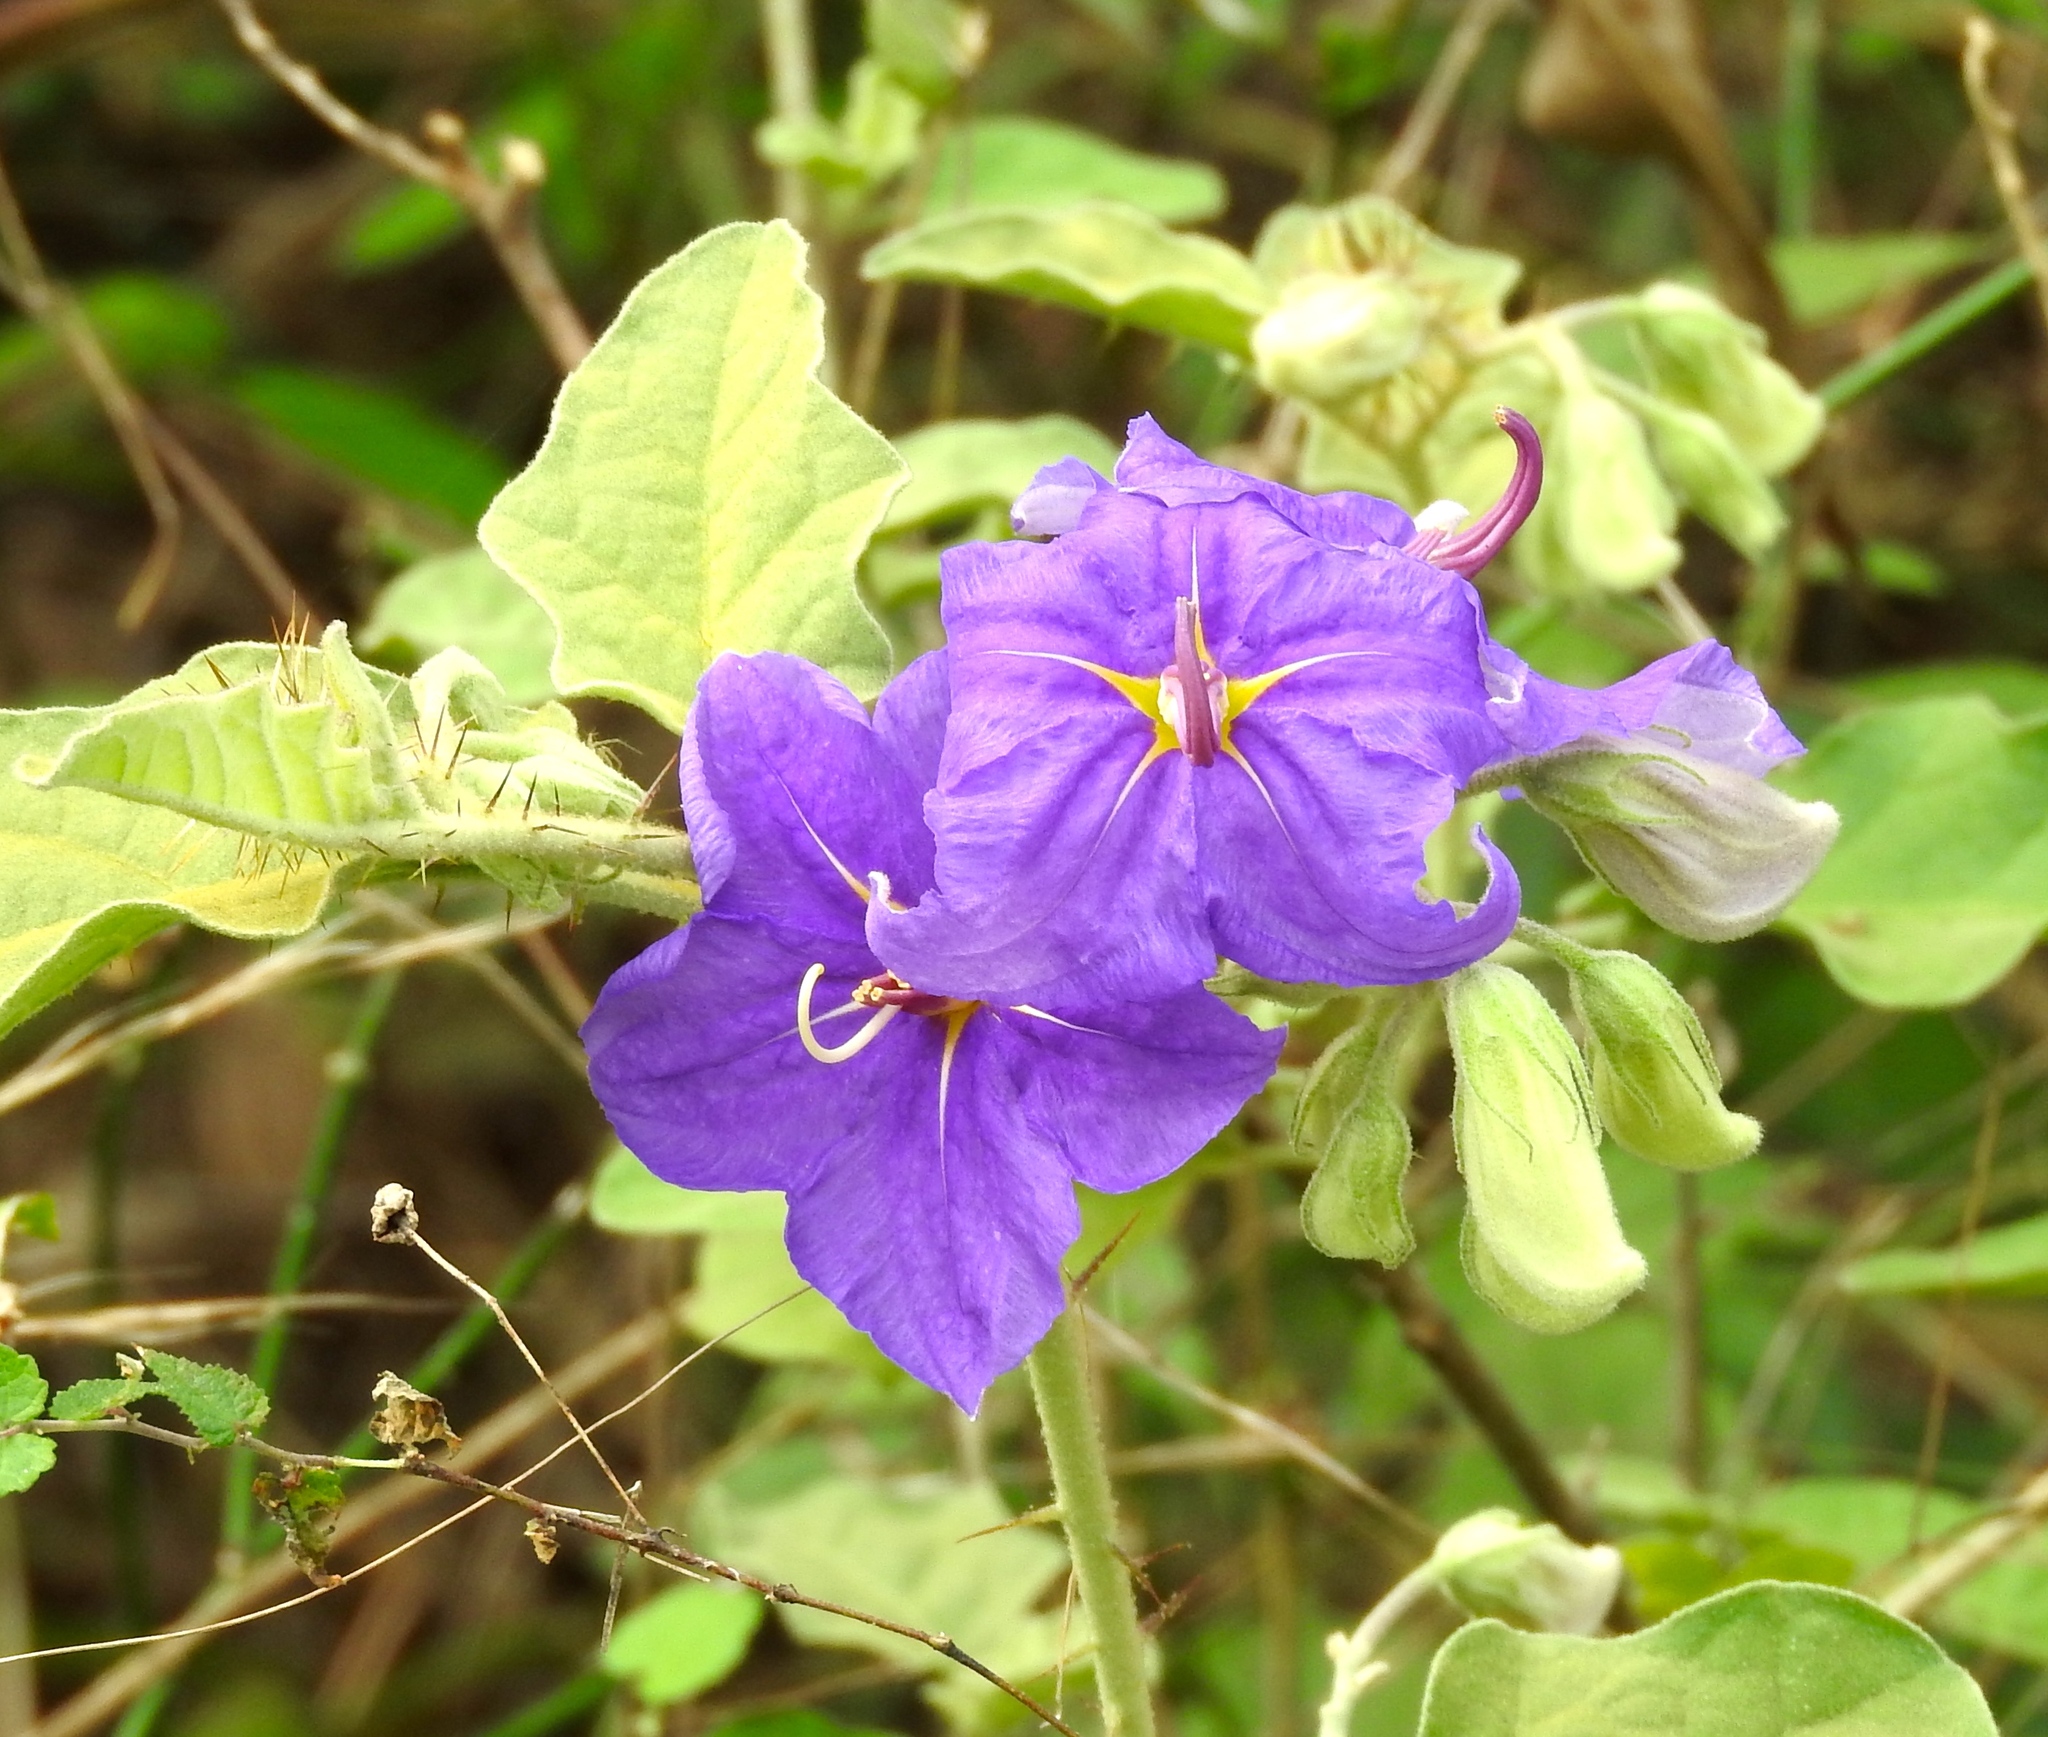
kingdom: Plantae
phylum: Tracheophyta
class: Magnoliopsida
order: Solanales
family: Solanaceae
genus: Solanum
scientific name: Solanum houstonii
